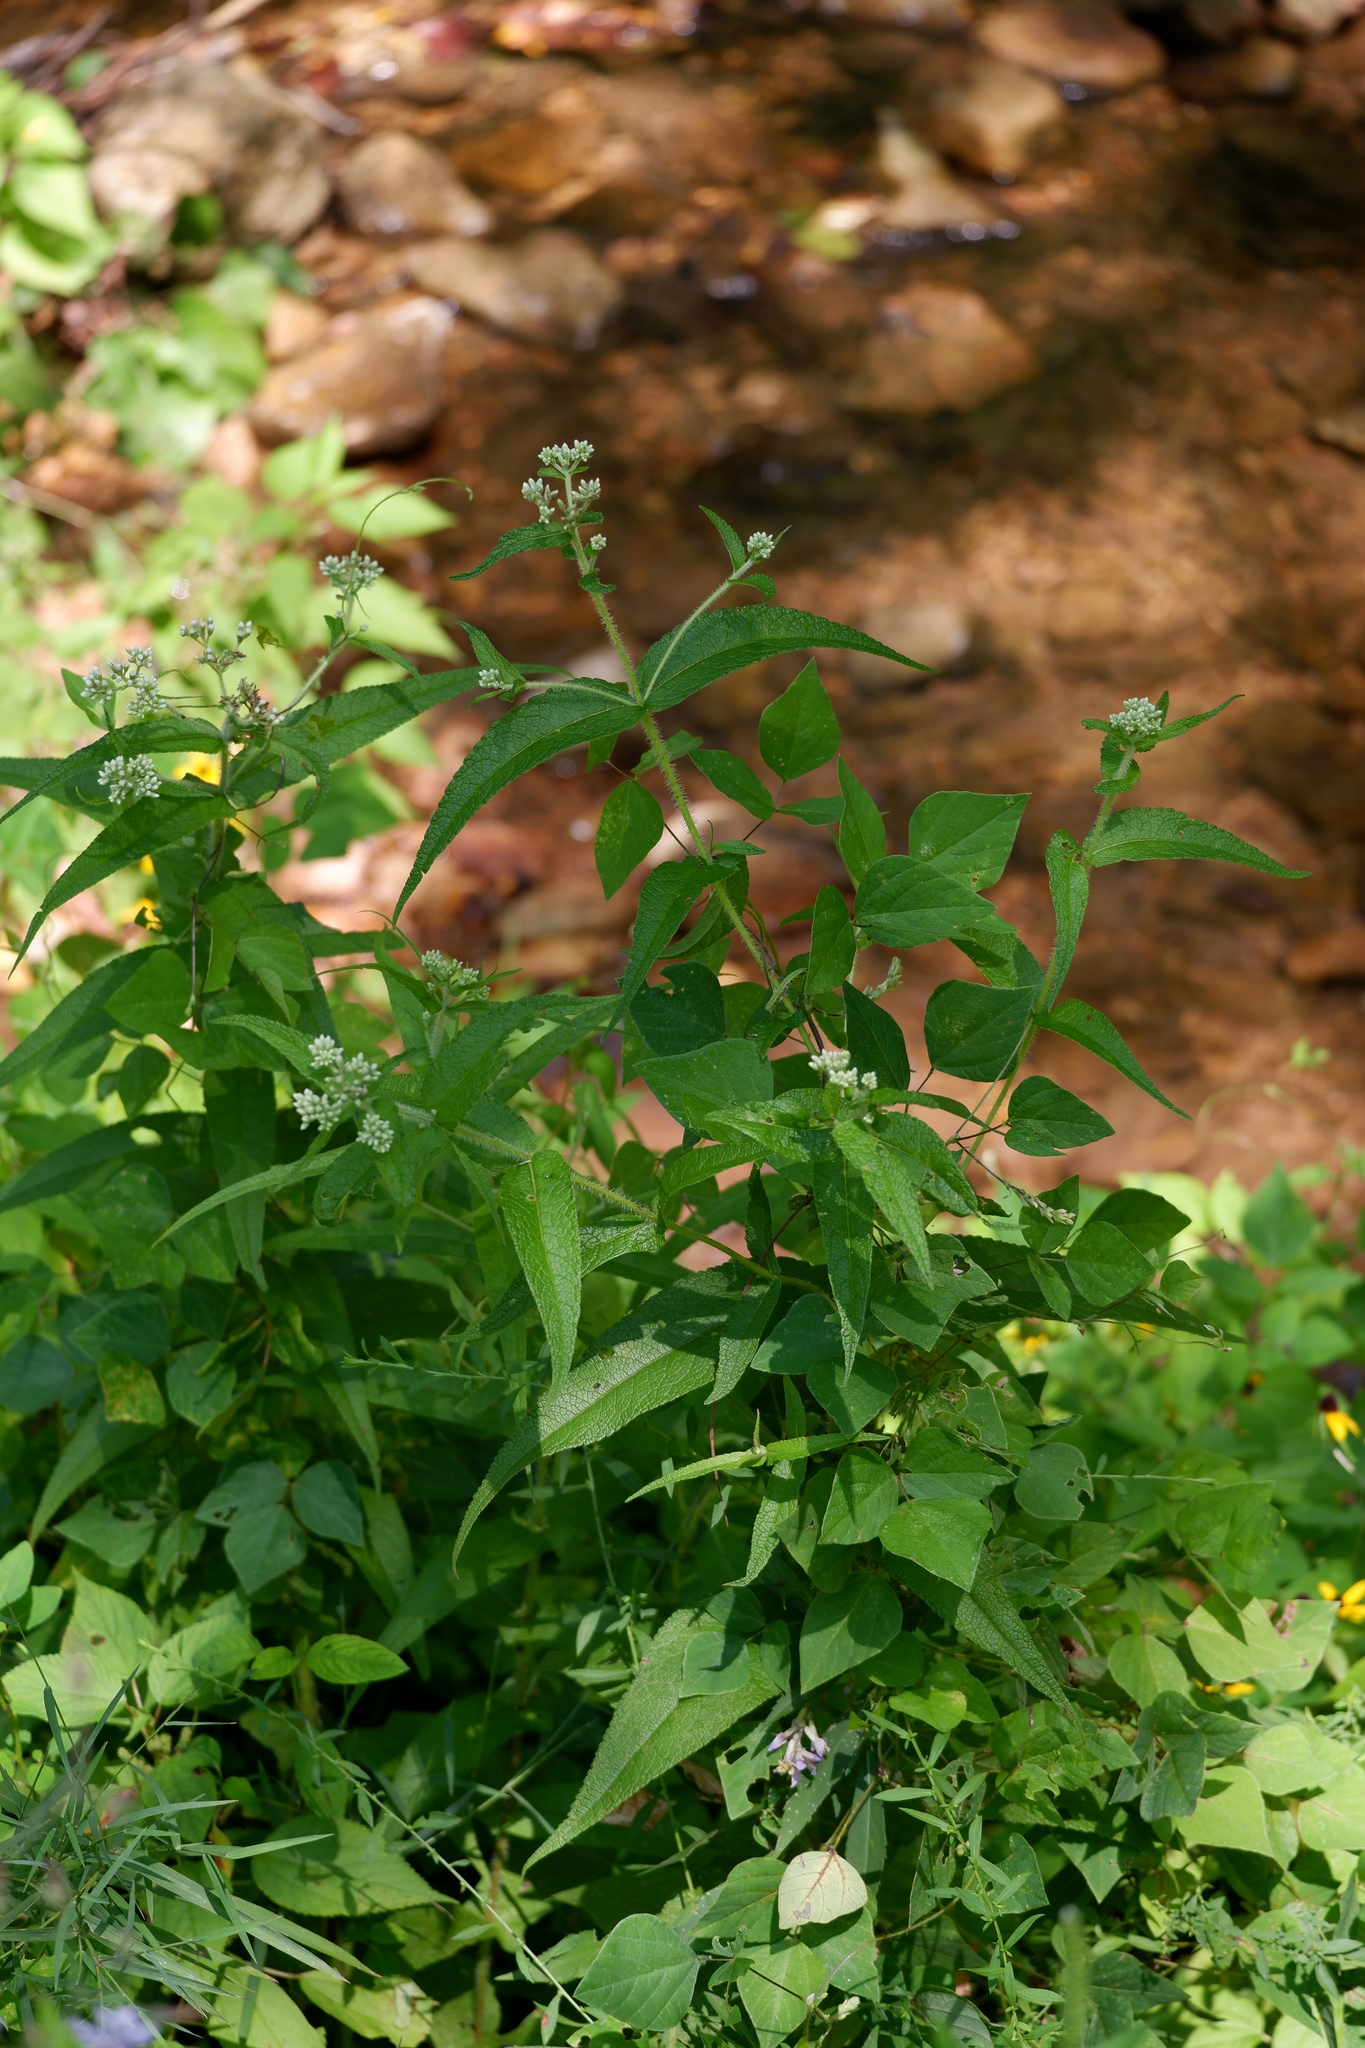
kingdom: Plantae
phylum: Tracheophyta
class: Magnoliopsida
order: Asterales
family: Asteraceae
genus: Eupatorium
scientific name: Eupatorium perfoliatum
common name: Boneset
